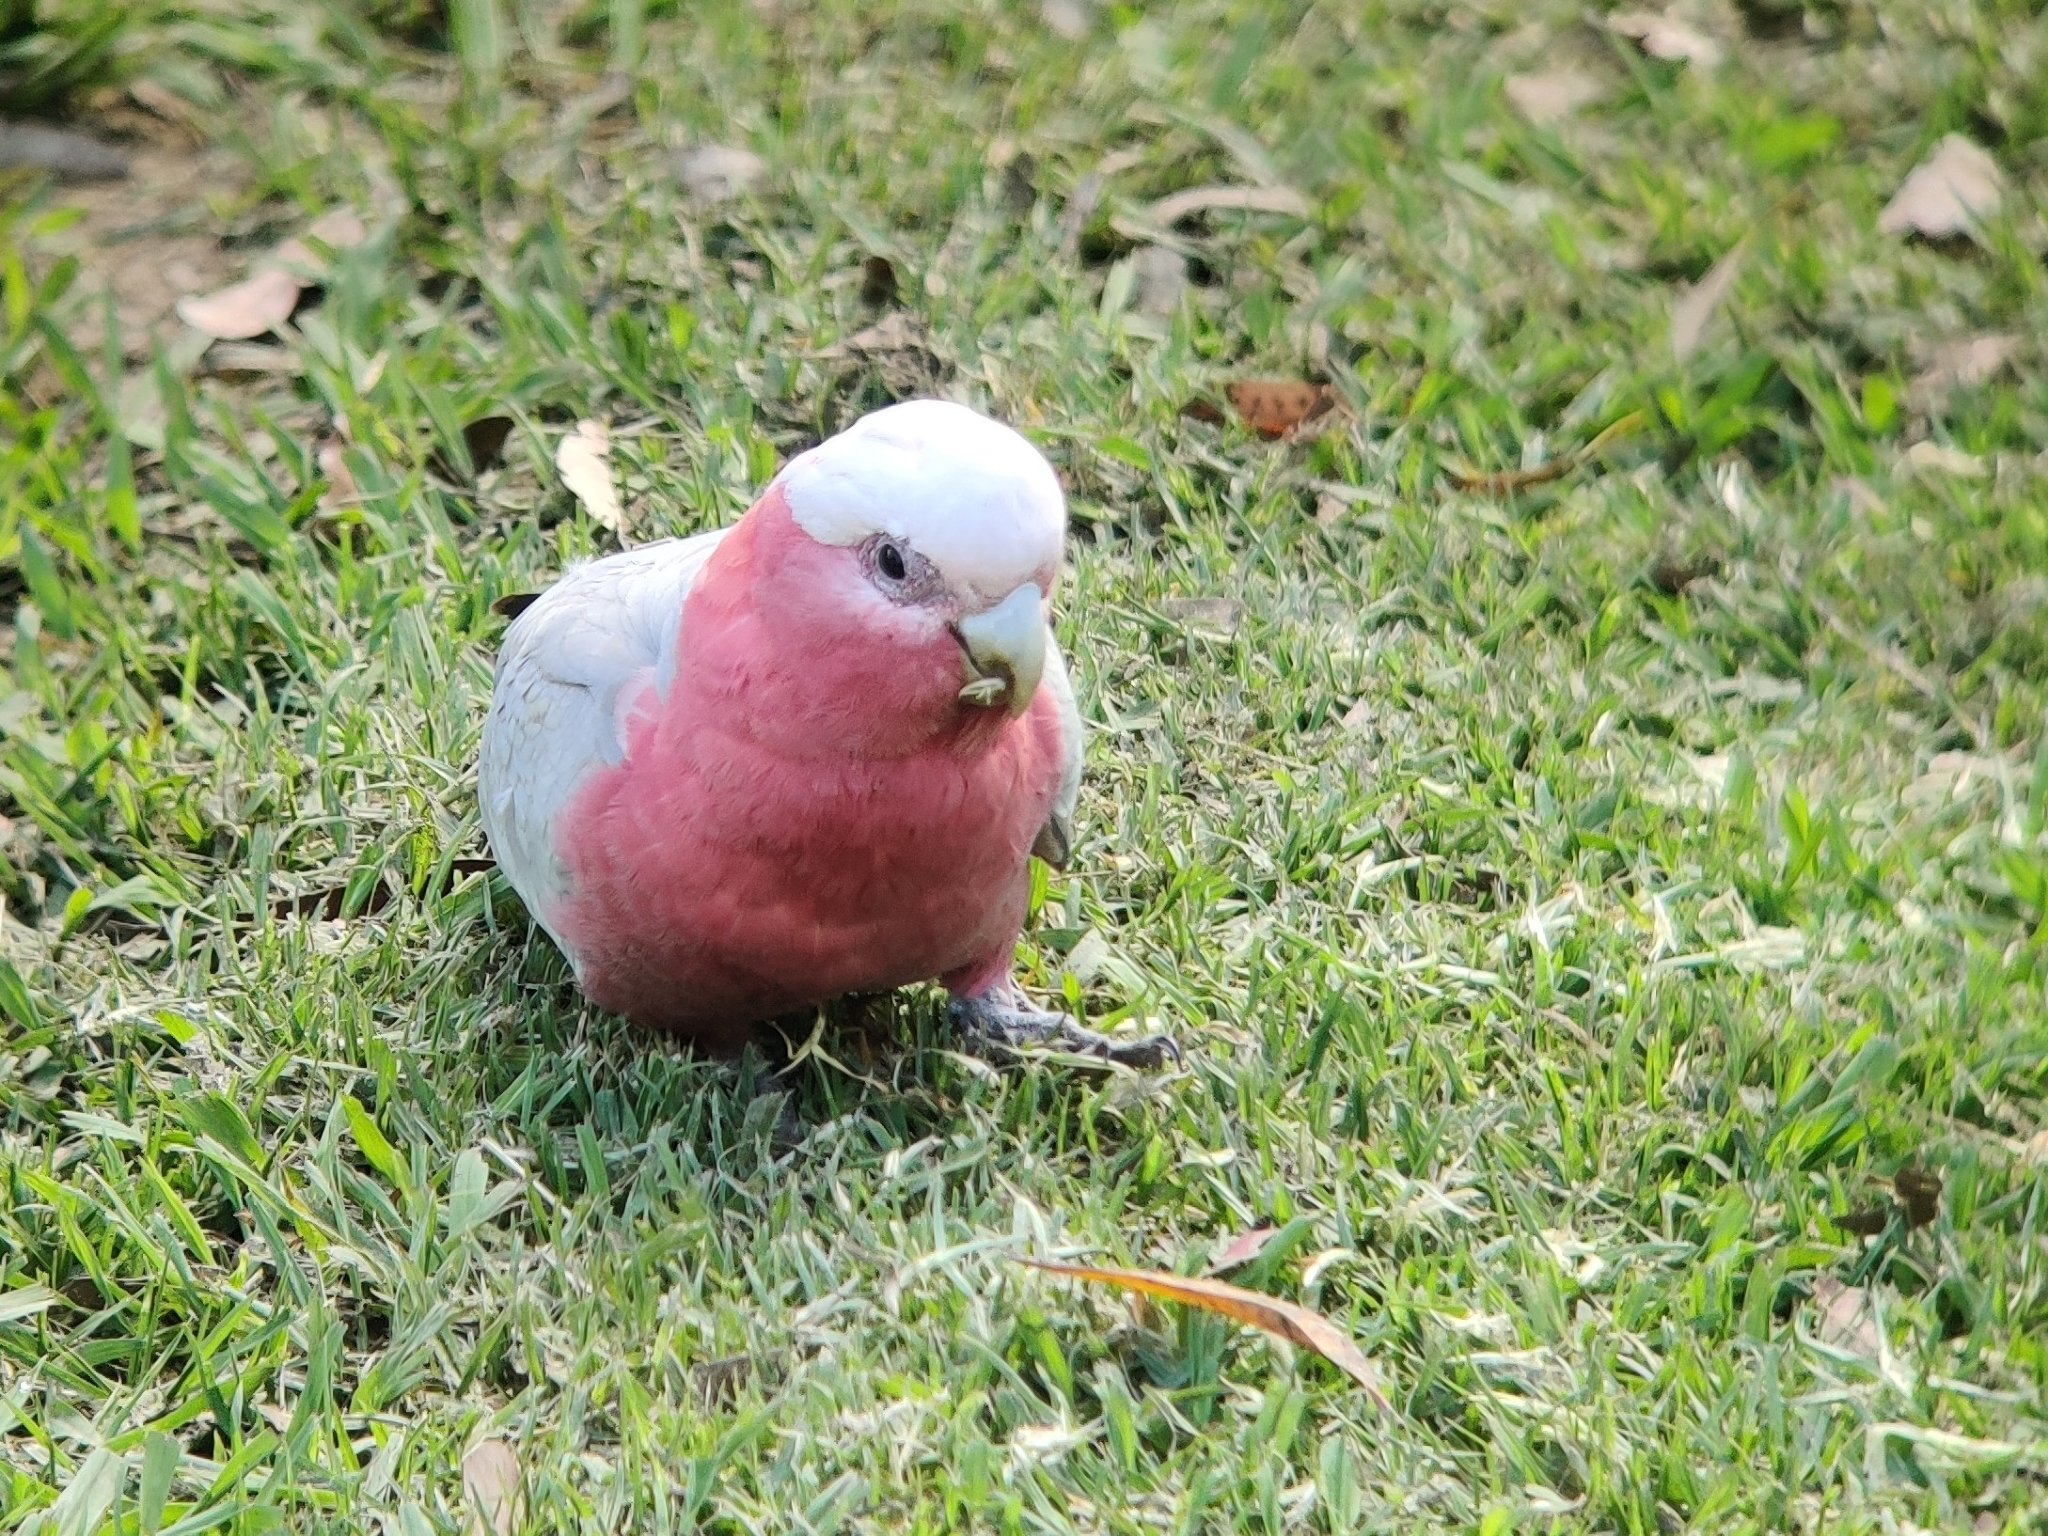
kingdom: Animalia
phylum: Chordata
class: Aves
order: Psittaciformes
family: Psittacidae
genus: Eolophus
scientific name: Eolophus roseicapilla
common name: Galah
